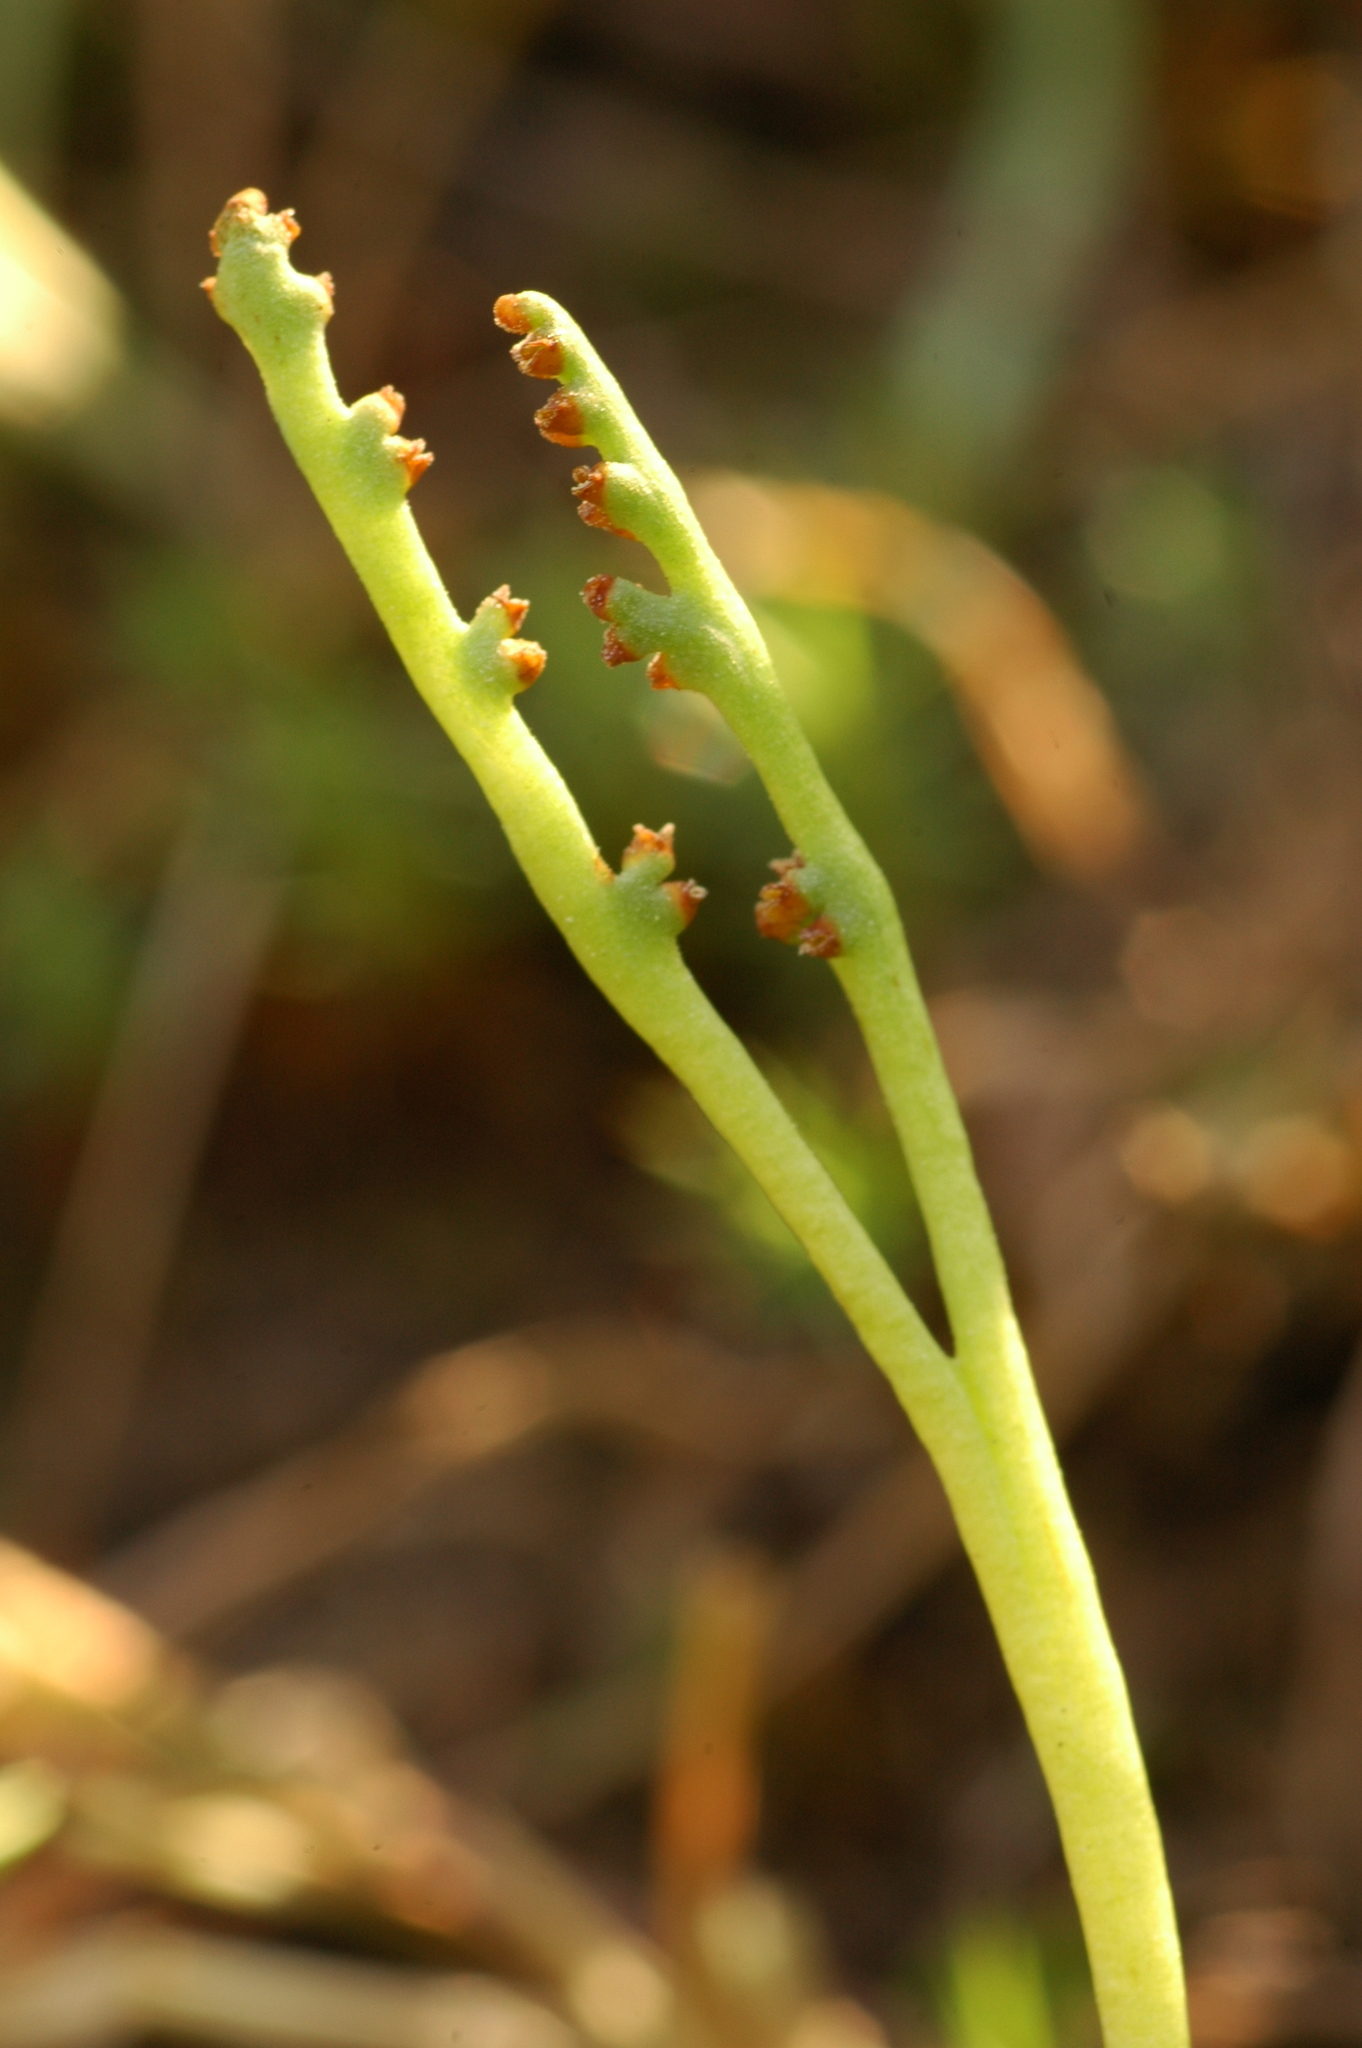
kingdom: Plantae
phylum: Tracheophyta
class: Polypodiopsida
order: Ophioglossales
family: Ophioglossaceae
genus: Botrychium
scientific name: Botrychium paradoxum
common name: Paradox moonwort
